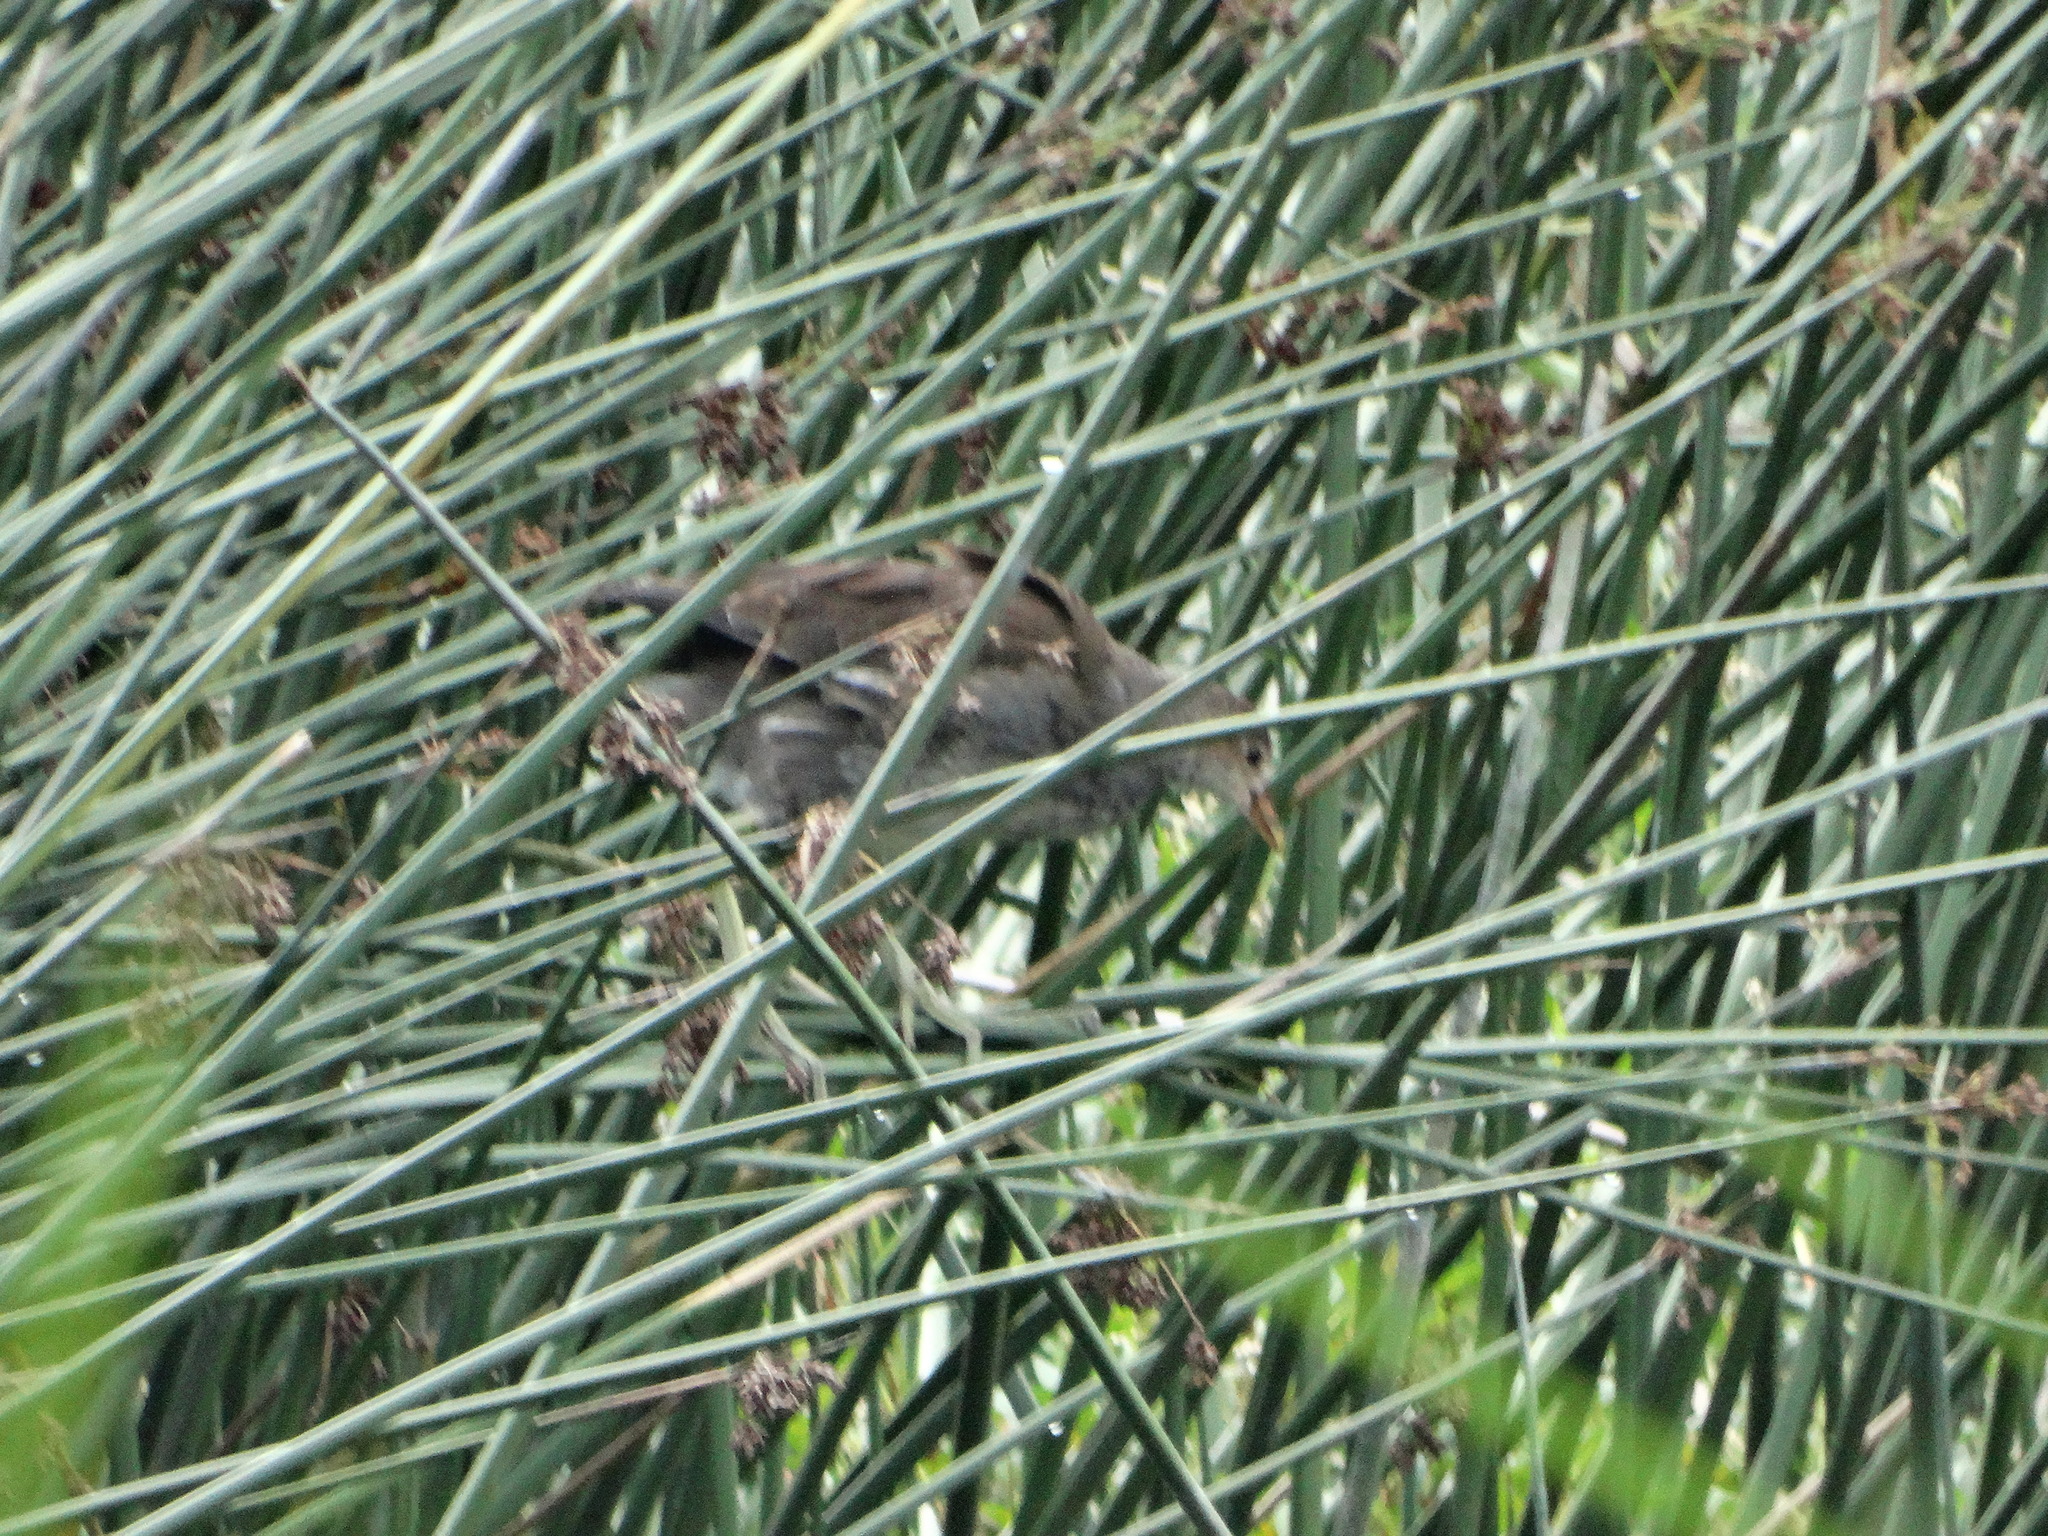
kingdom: Animalia
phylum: Chordata
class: Aves
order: Gruiformes
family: Rallidae
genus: Gallinula
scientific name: Gallinula chloropus
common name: Common moorhen
